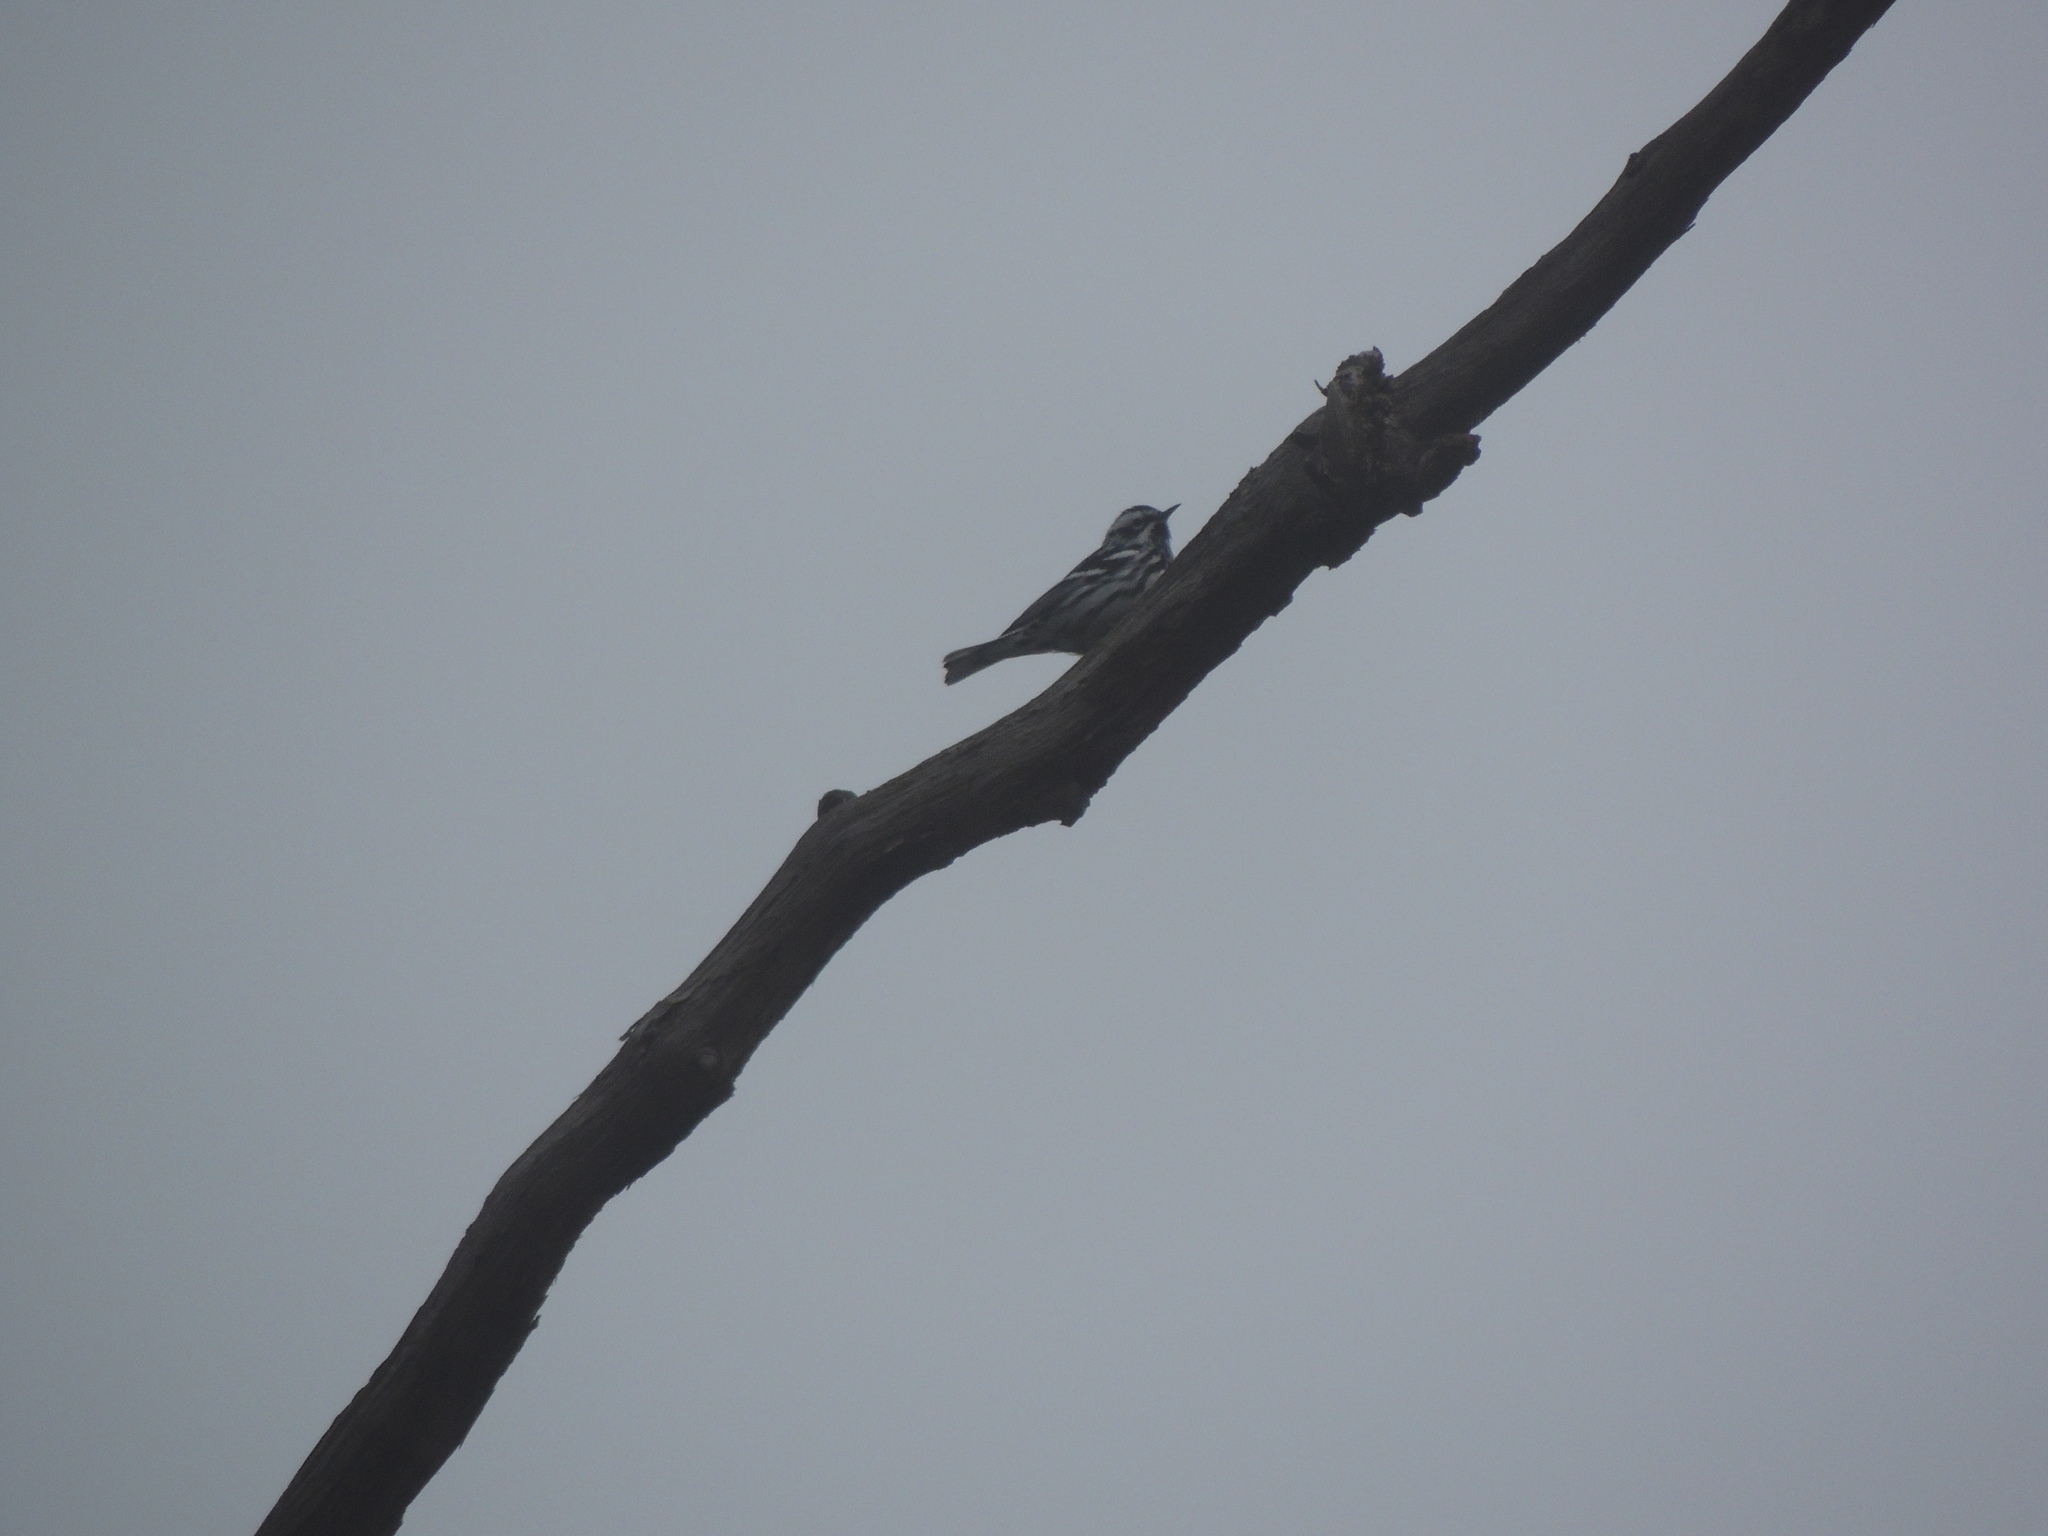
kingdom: Animalia
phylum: Chordata
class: Aves
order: Passeriformes
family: Parulidae
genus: Mniotilta
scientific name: Mniotilta varia
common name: Black-and-white warbler
